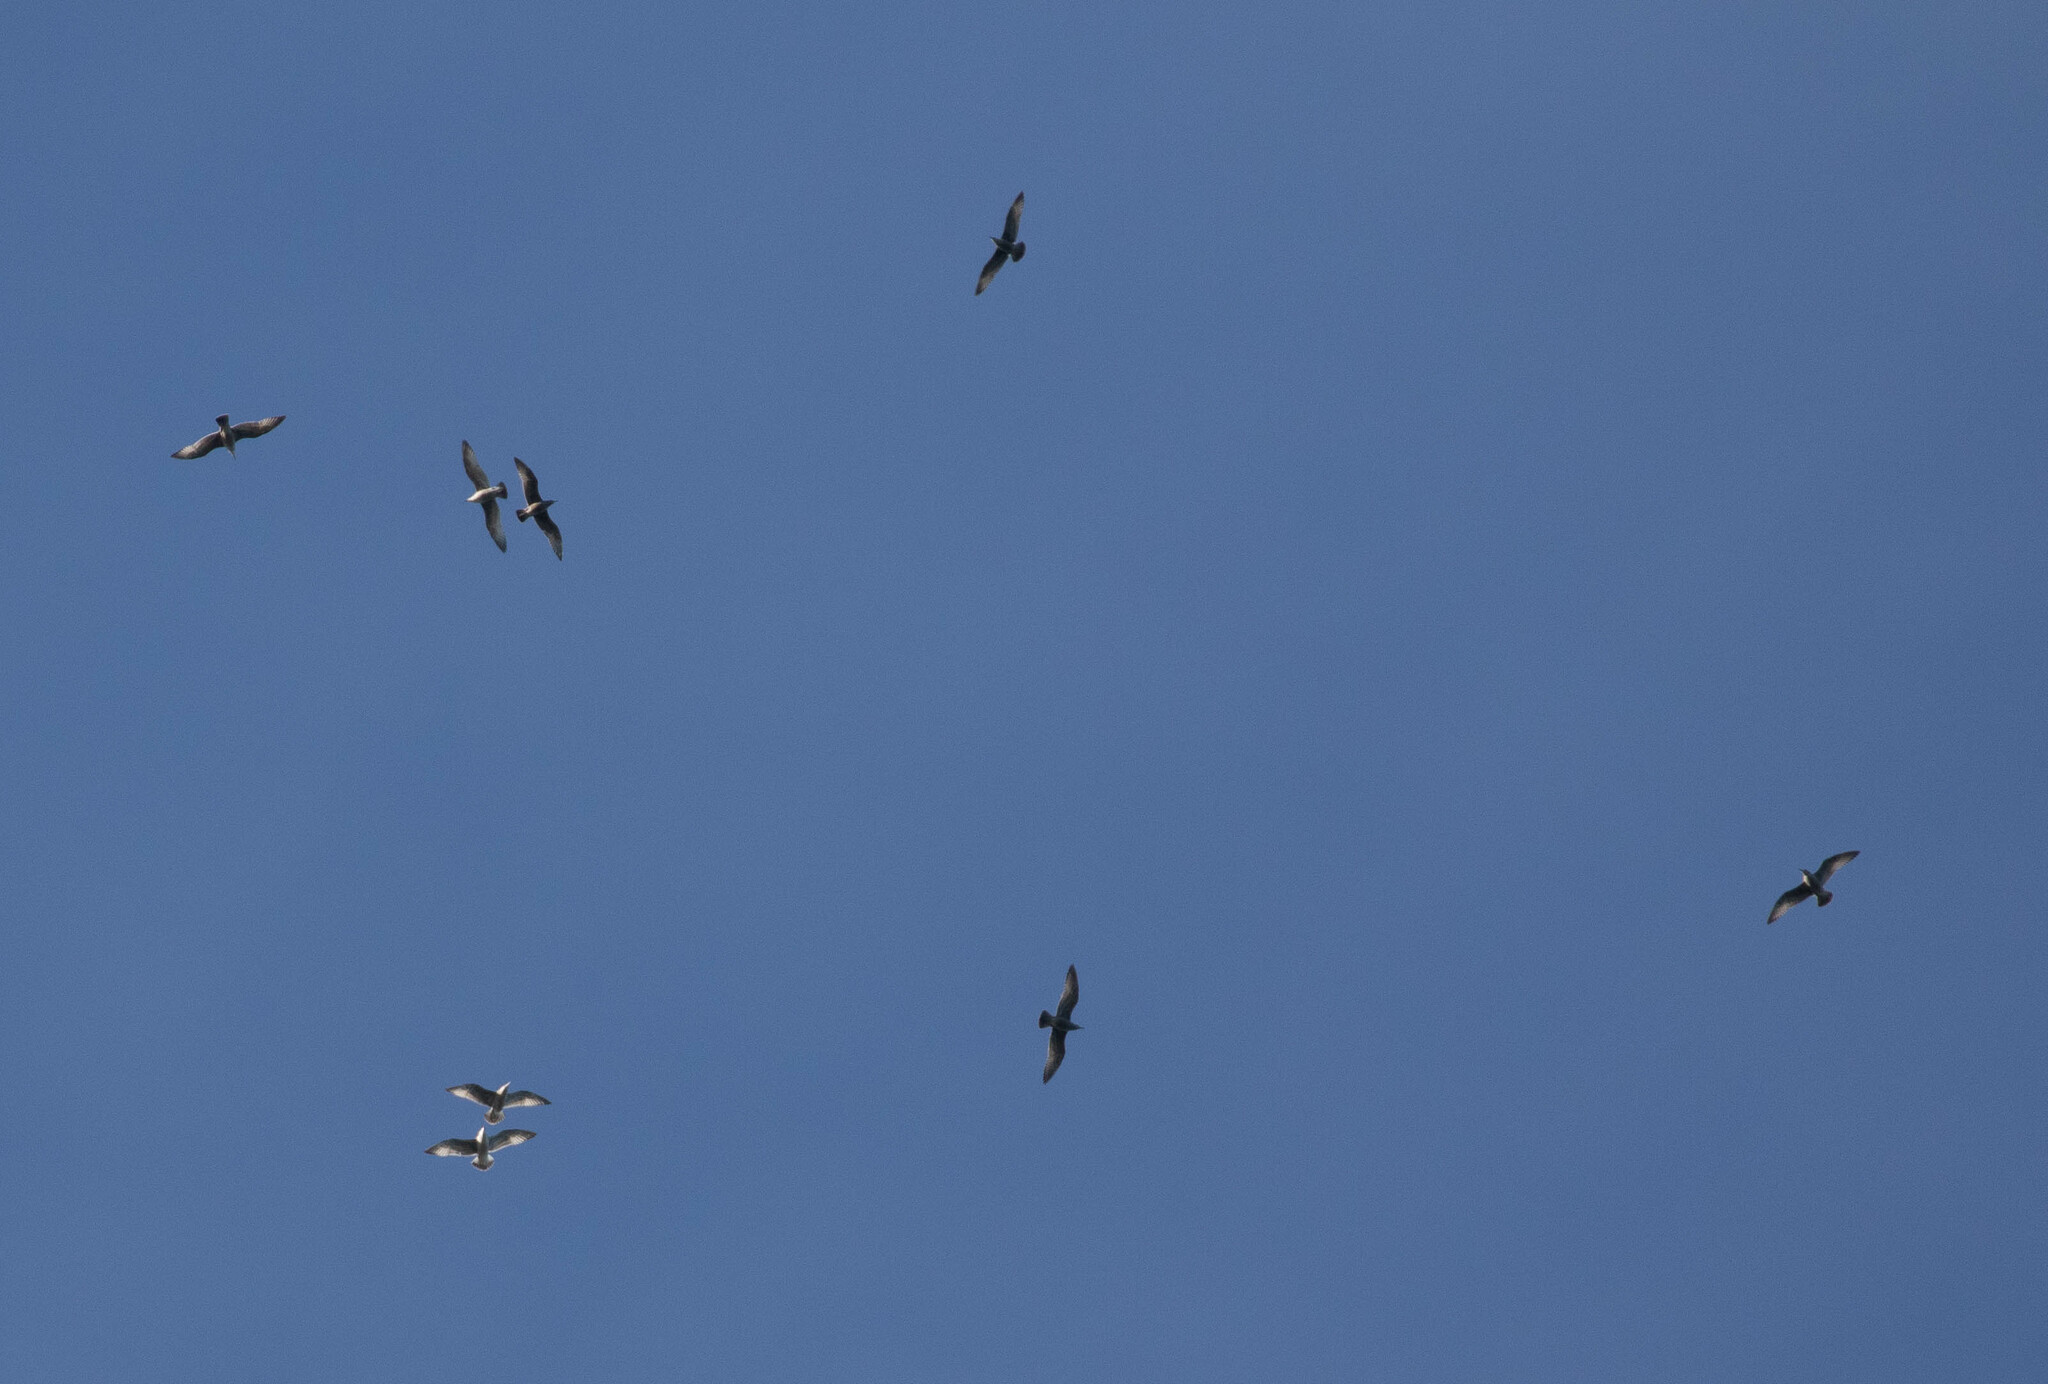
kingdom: Animalia
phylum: Chordata
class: Aves
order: Charadriiformes
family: Laridae
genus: Larus
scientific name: Larus argentatus
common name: Herring gull
